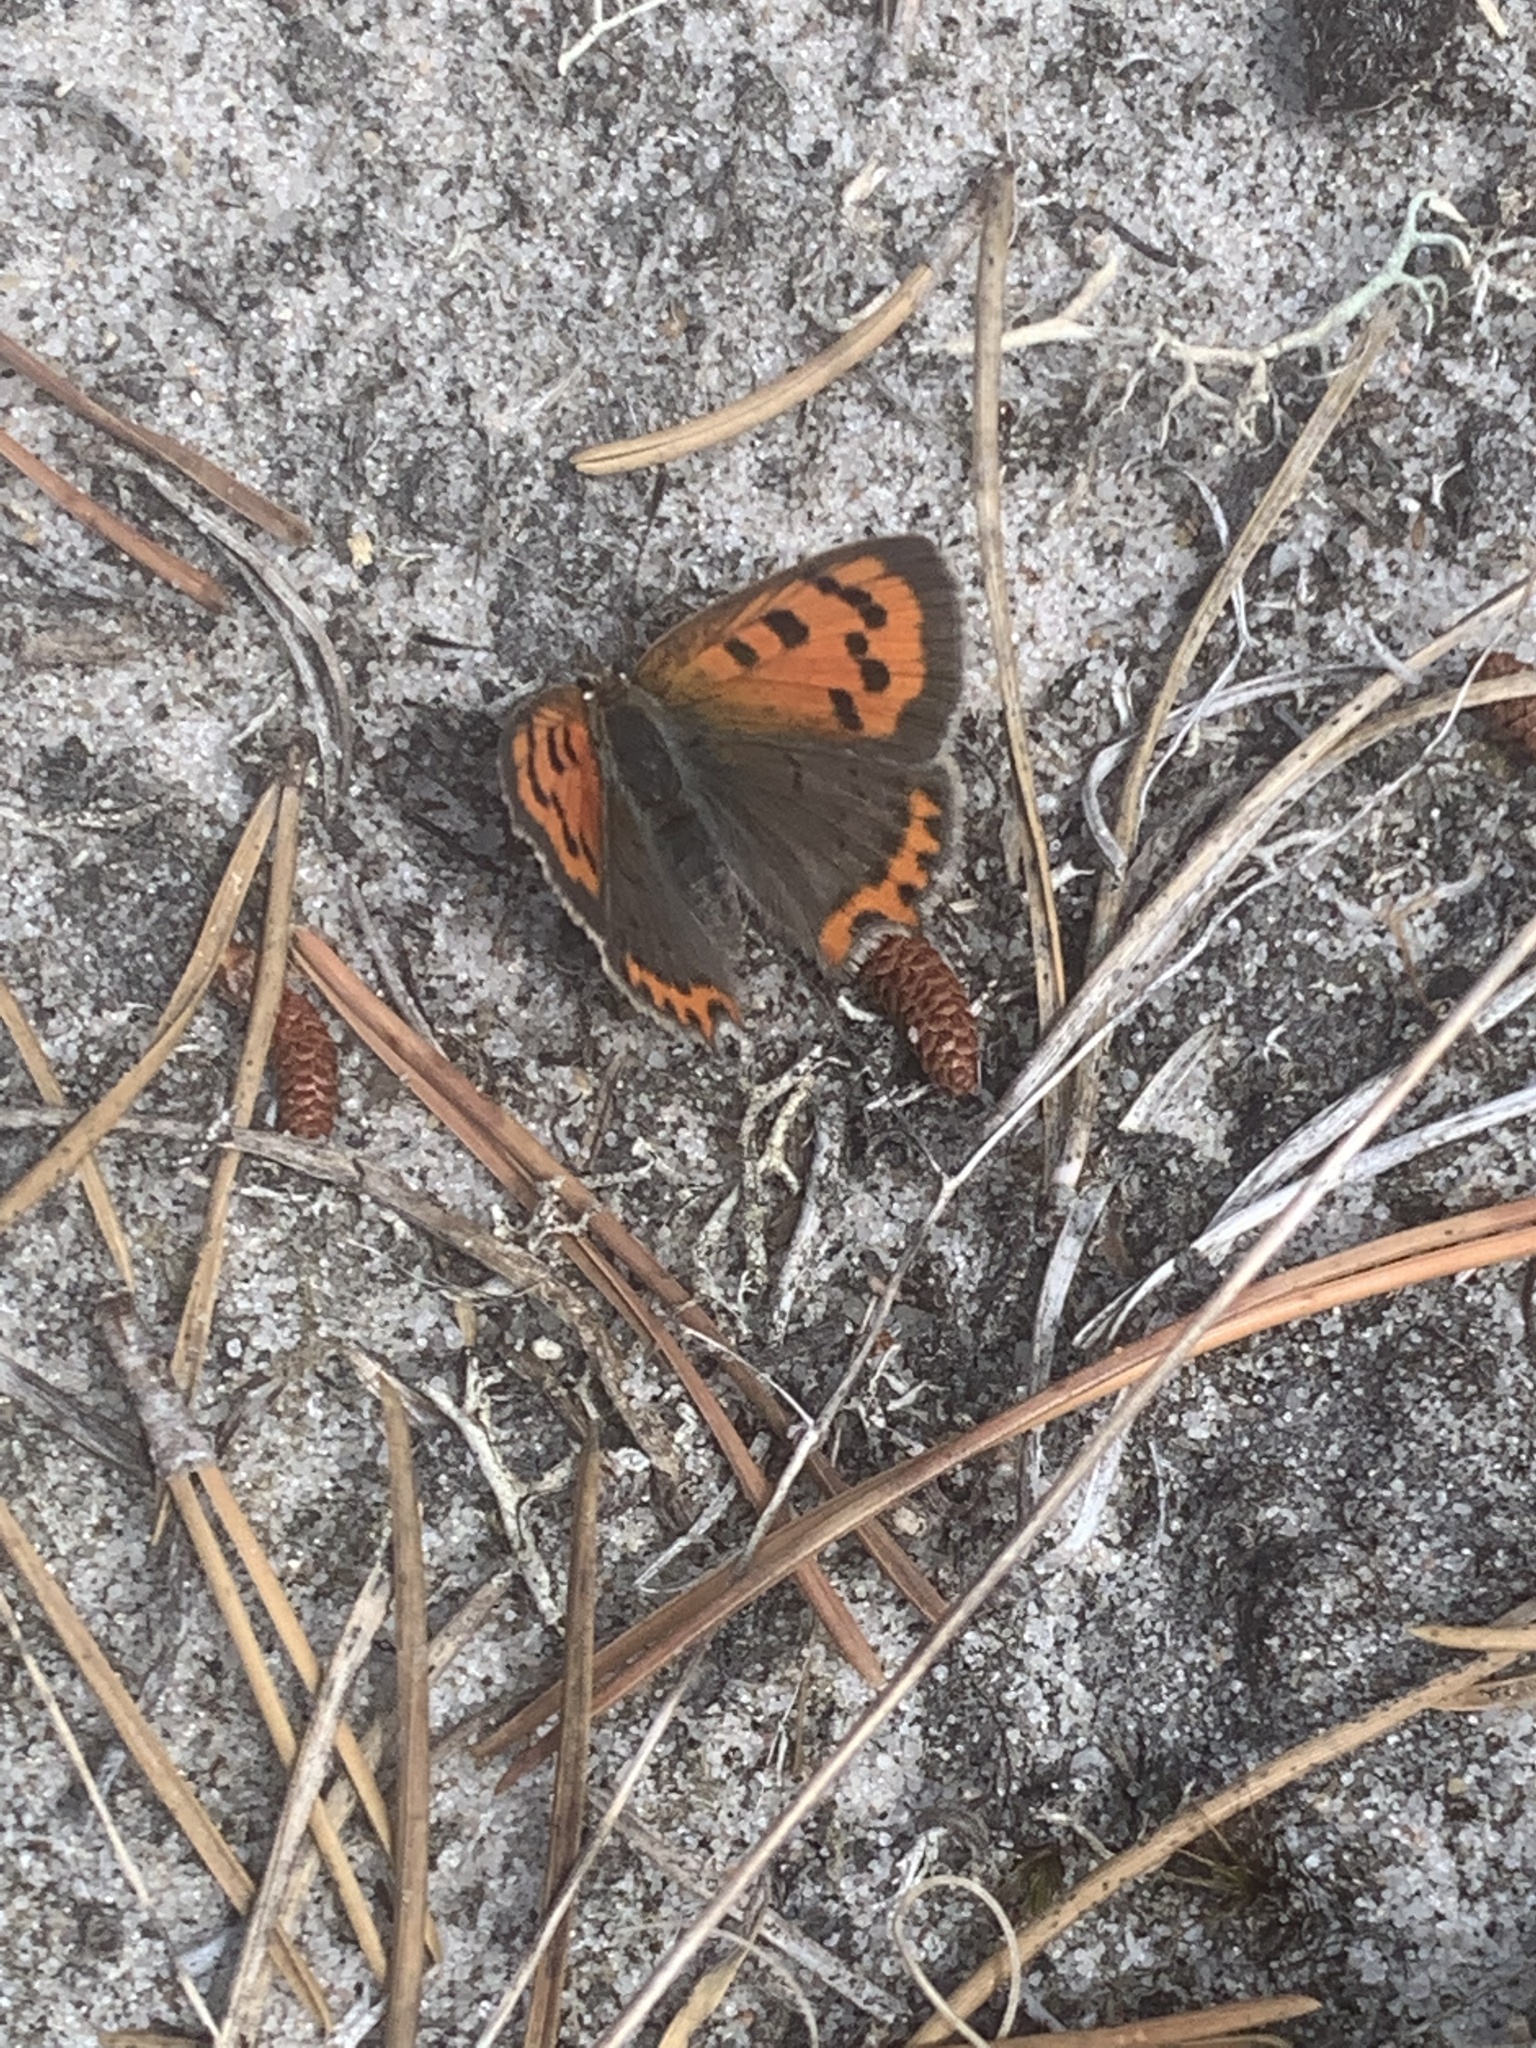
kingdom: Animalia
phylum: Arthropoda
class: Insecta
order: Lepidoptera
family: Lycaenidae
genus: Lycaena
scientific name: Lycaena phlaeas
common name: Small copper
